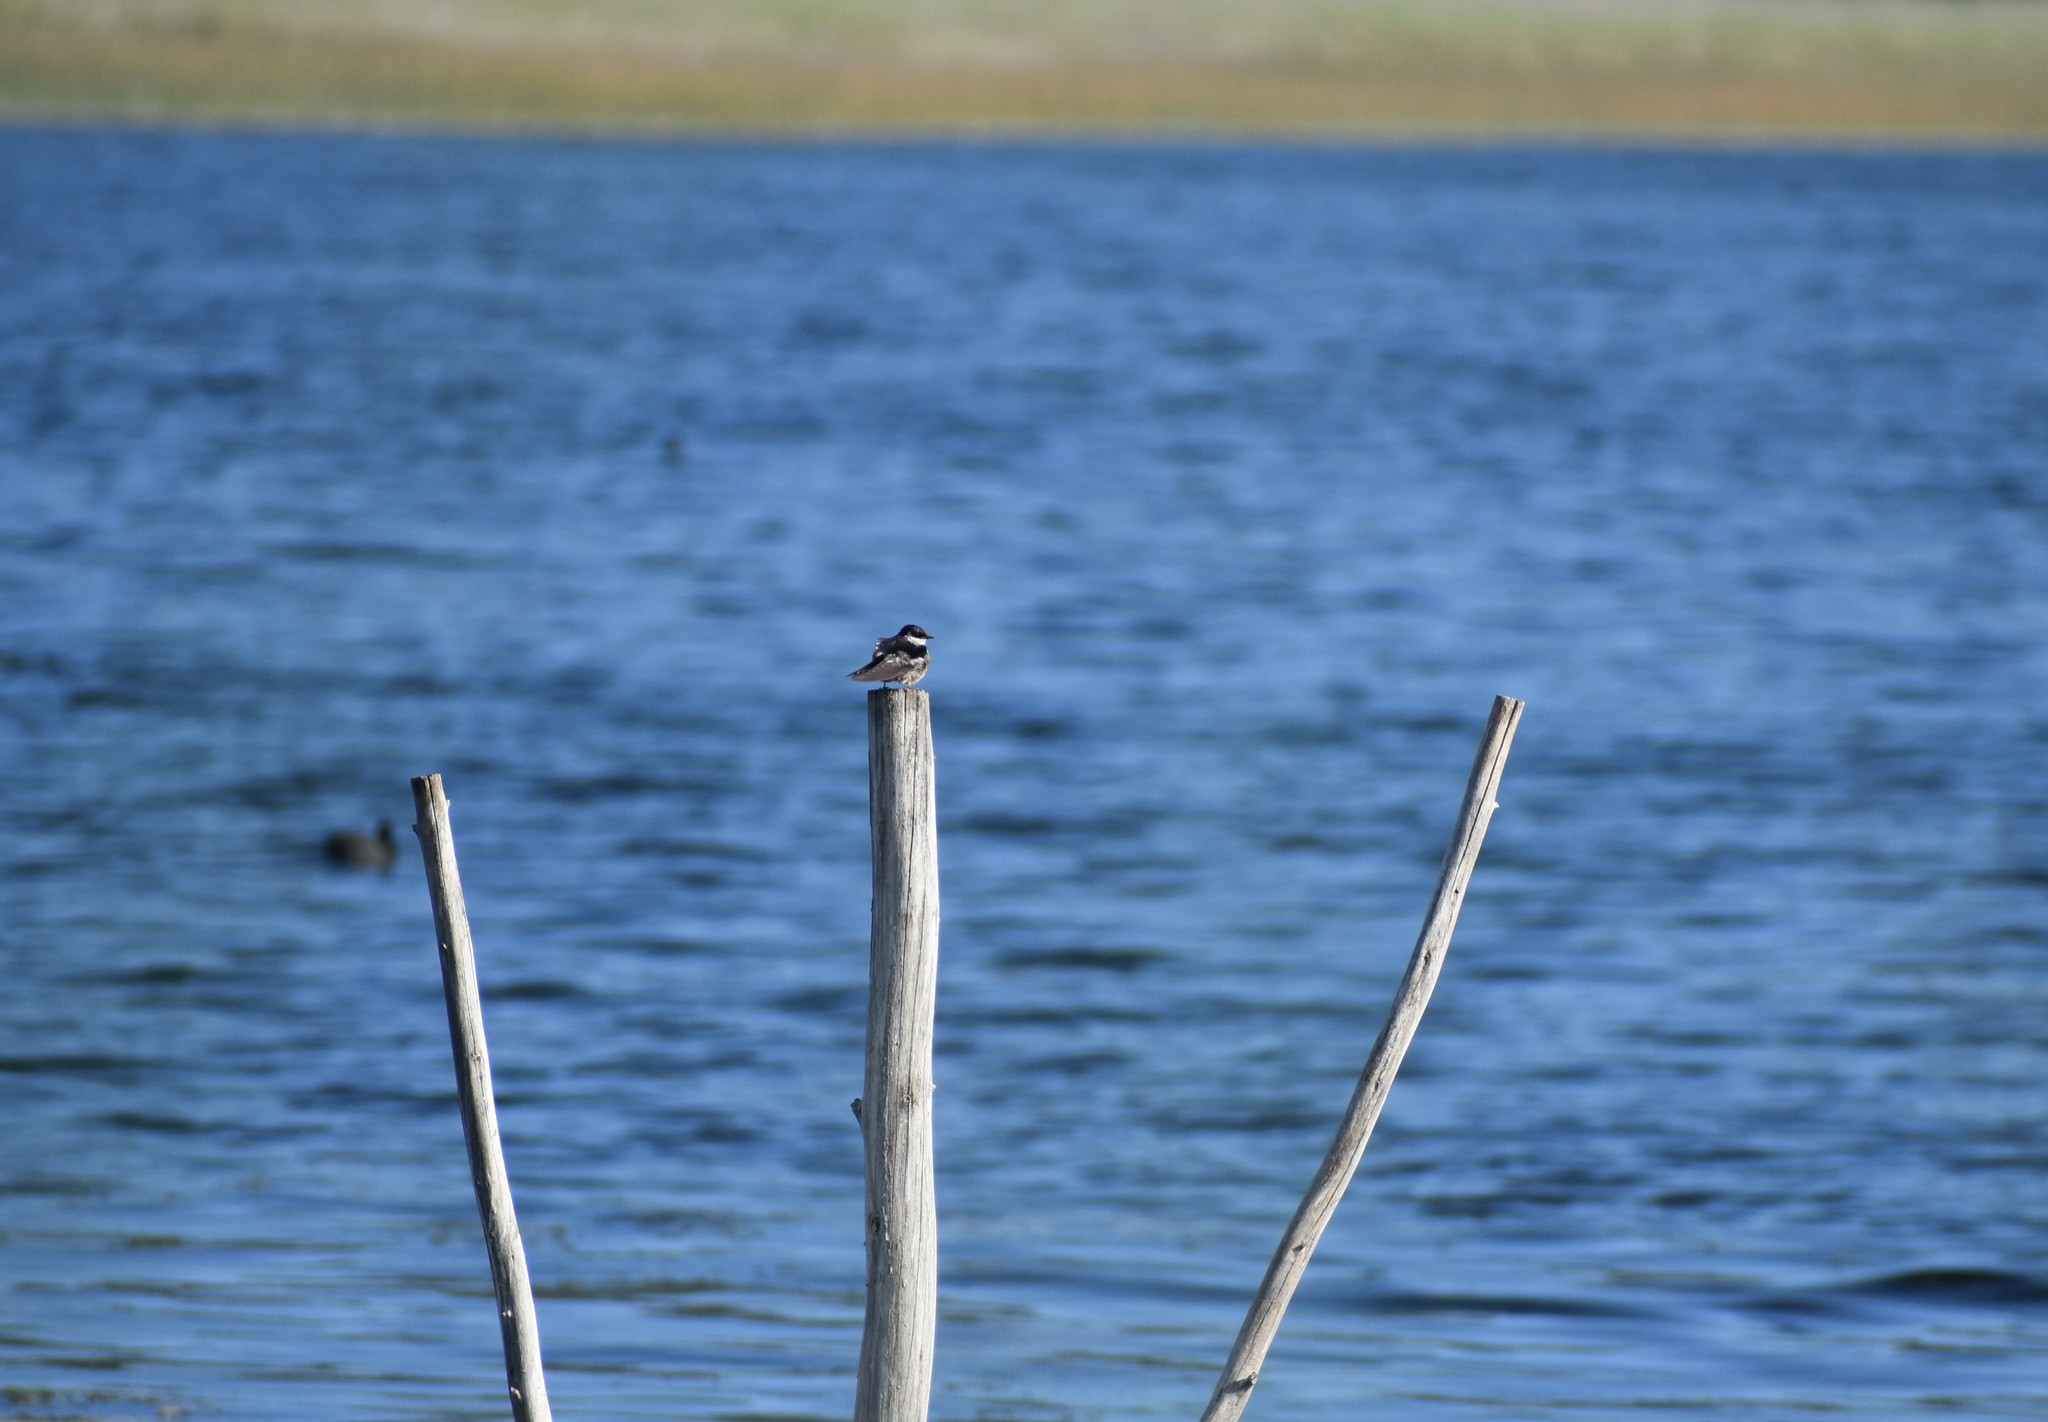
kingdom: Animalia
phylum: Chordata
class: Aves
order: Passeriformes
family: Hirundinidae
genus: Hirundo
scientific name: Hirundo albigularis
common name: White-throated swallow
